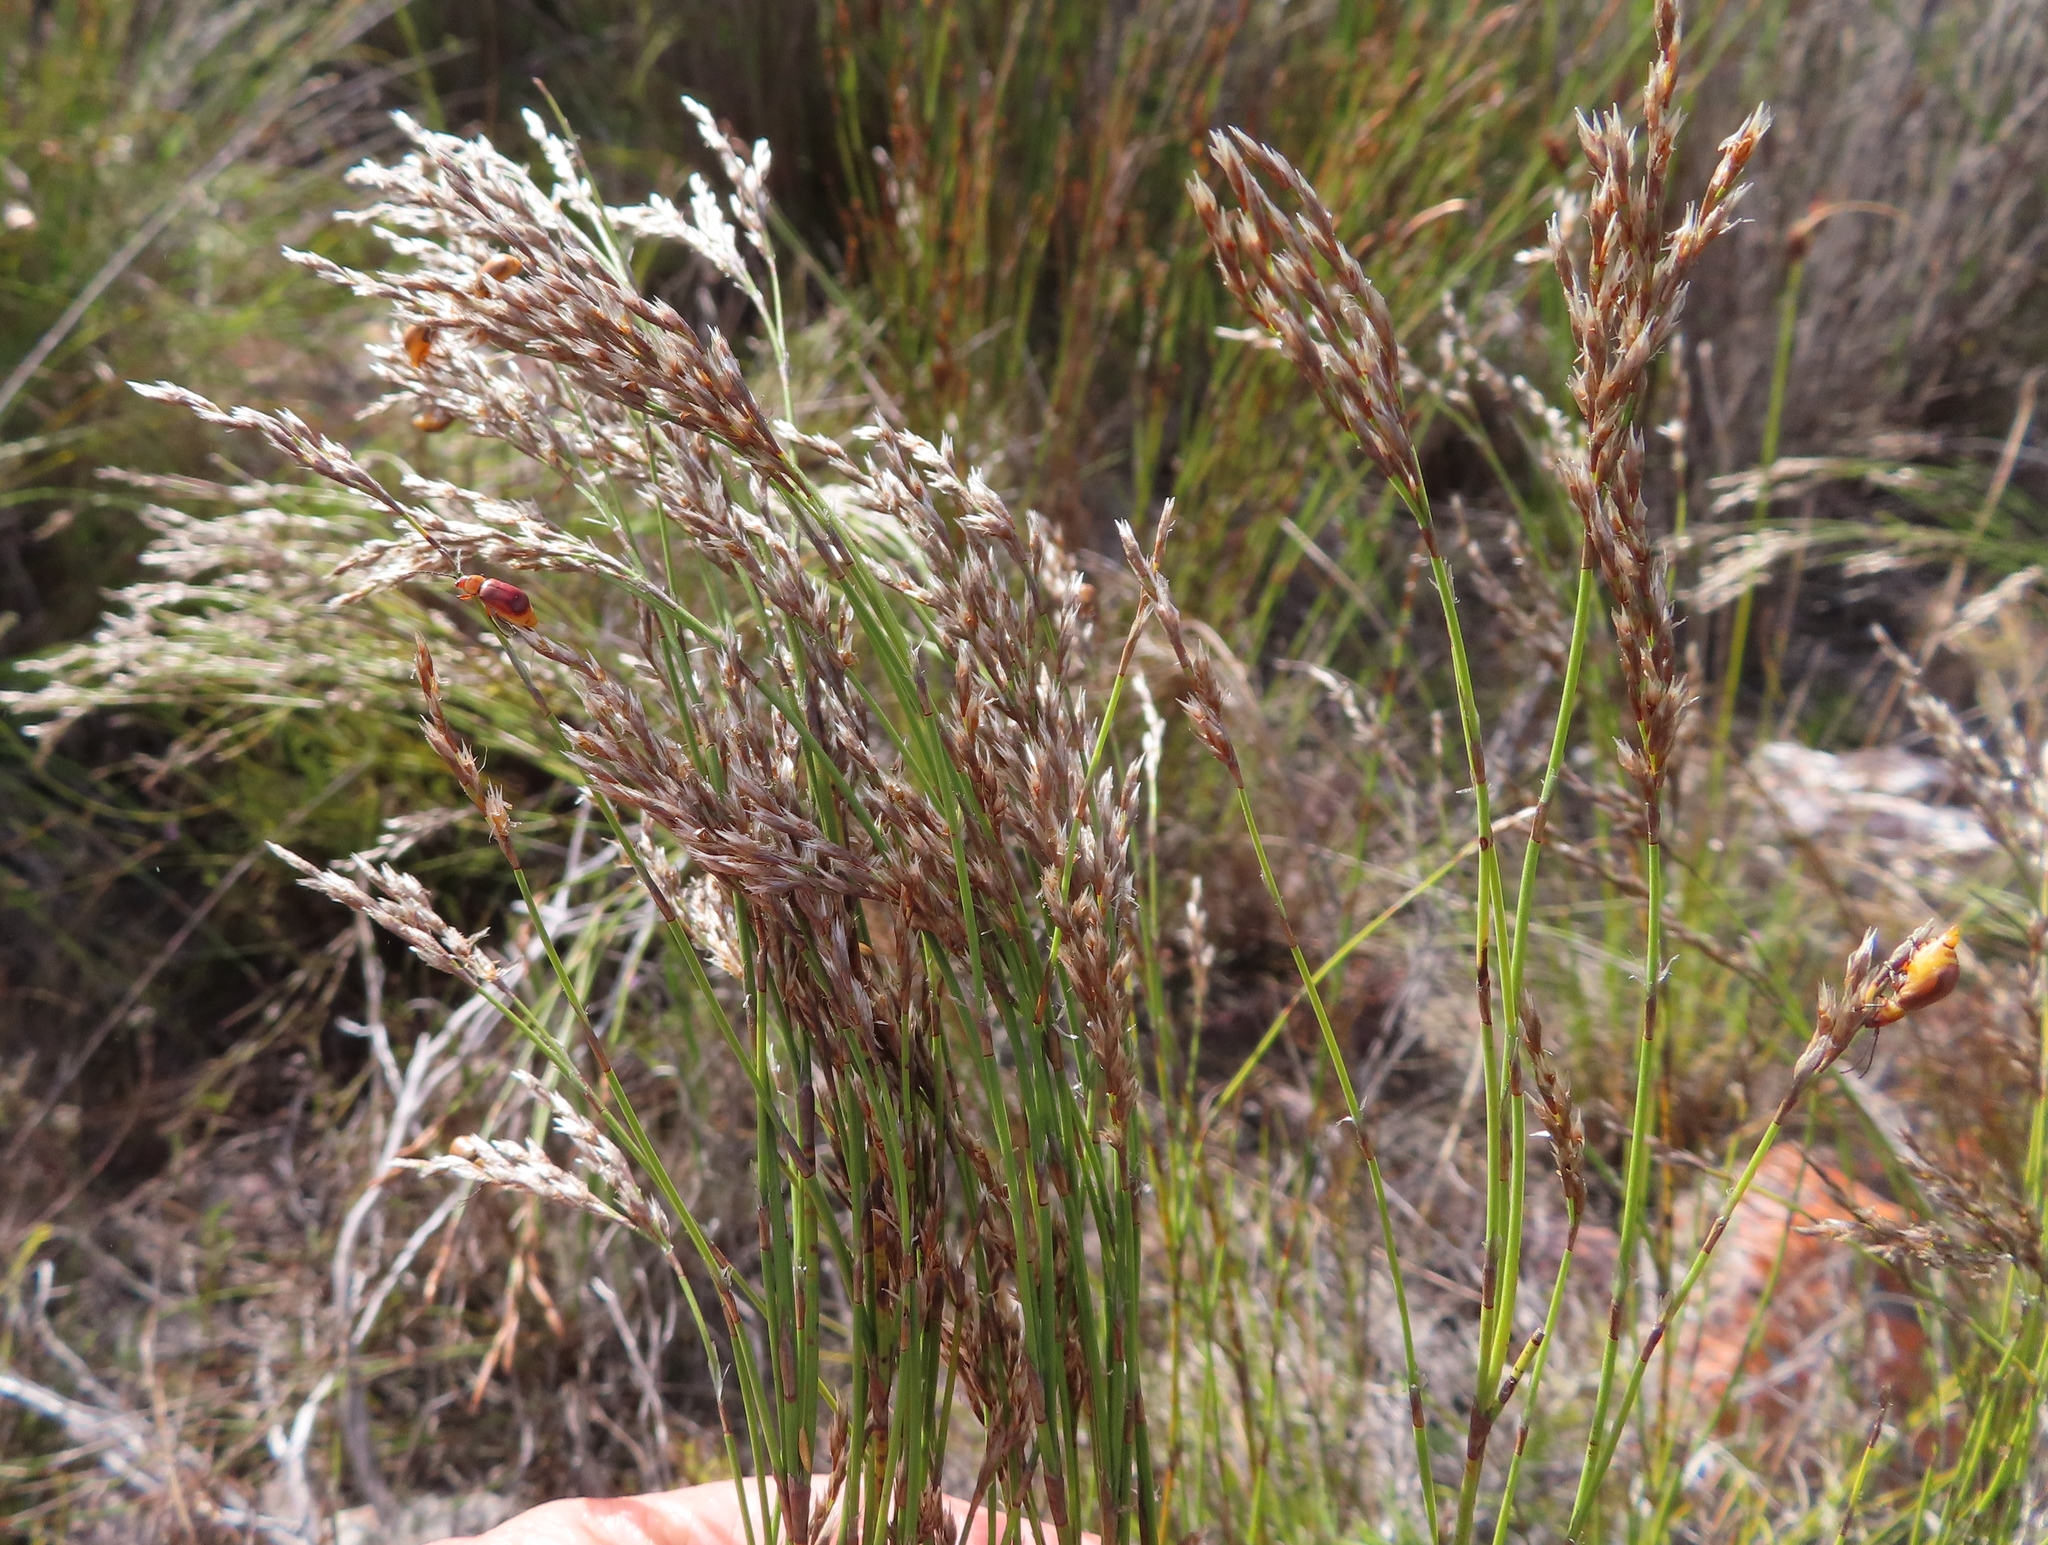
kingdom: Plantae
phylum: Tracheophyta
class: Liliopsida
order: Poales
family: Restionaceae
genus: Restio
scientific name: Restio festuciformis
